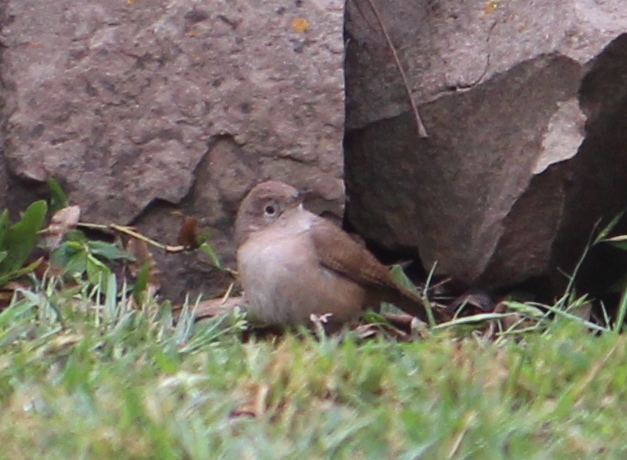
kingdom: Animalia
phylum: Chordata
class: Aves
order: Passeriformes
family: Troglodytidae
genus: Troglodytes
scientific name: Troglodytes aedon
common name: House wren
